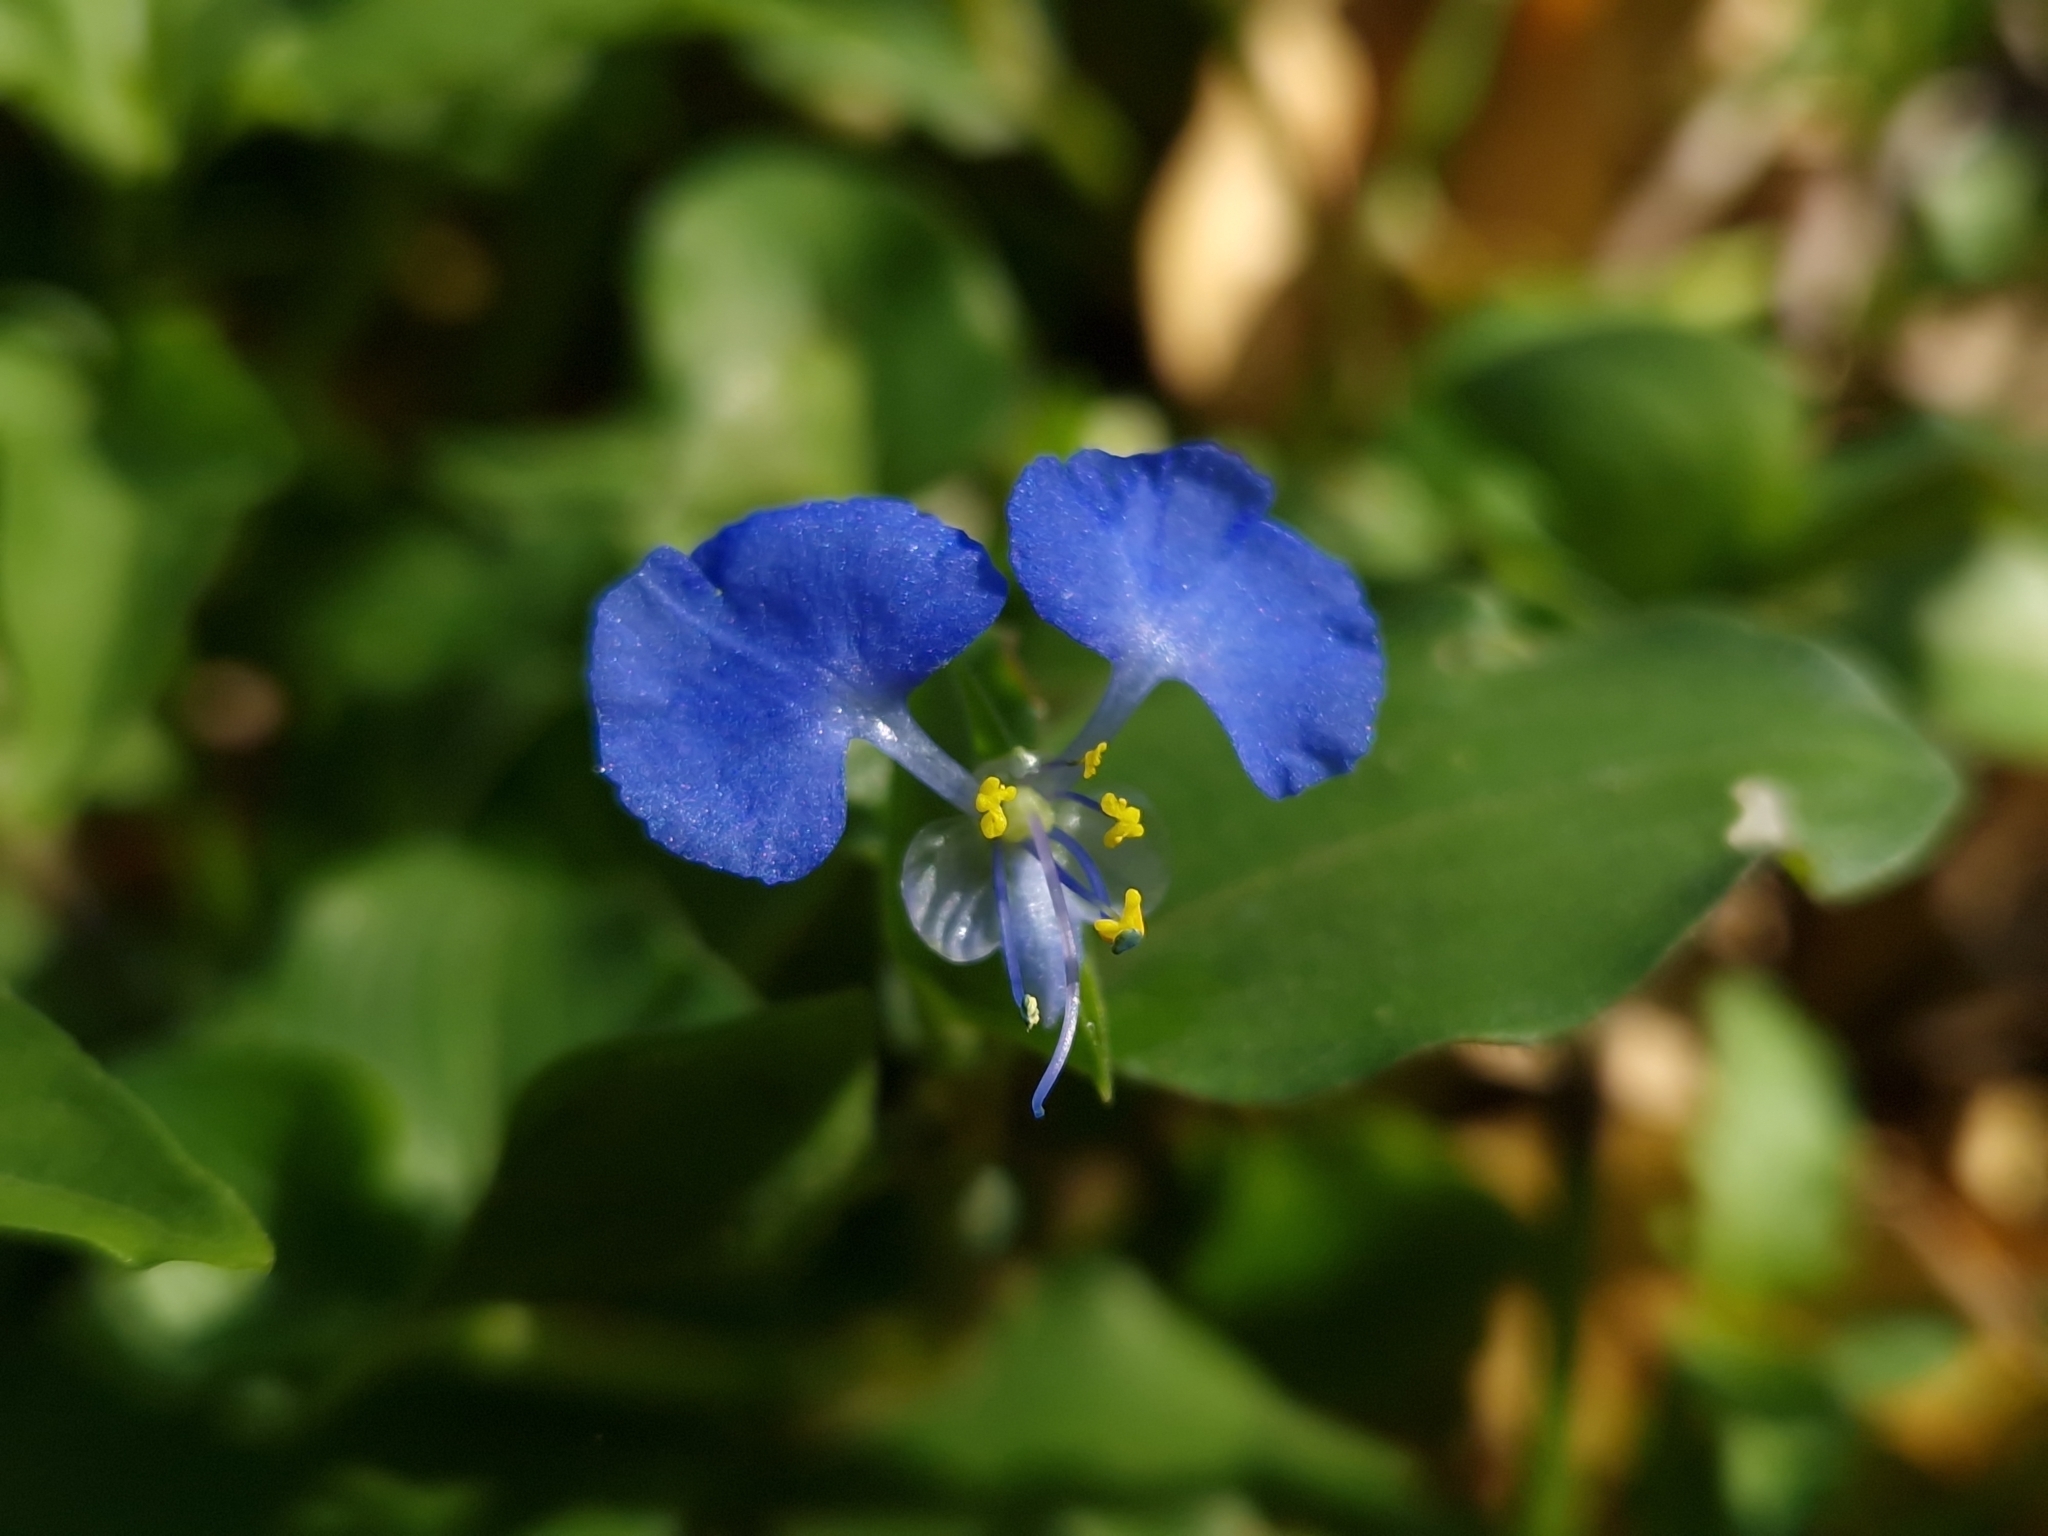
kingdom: Plantae
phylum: Tracheophyta
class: Liliopsida
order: Commelinales
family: Commelinaceae
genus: Commelina
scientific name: Commelina erecta
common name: Blousel blommetjie
